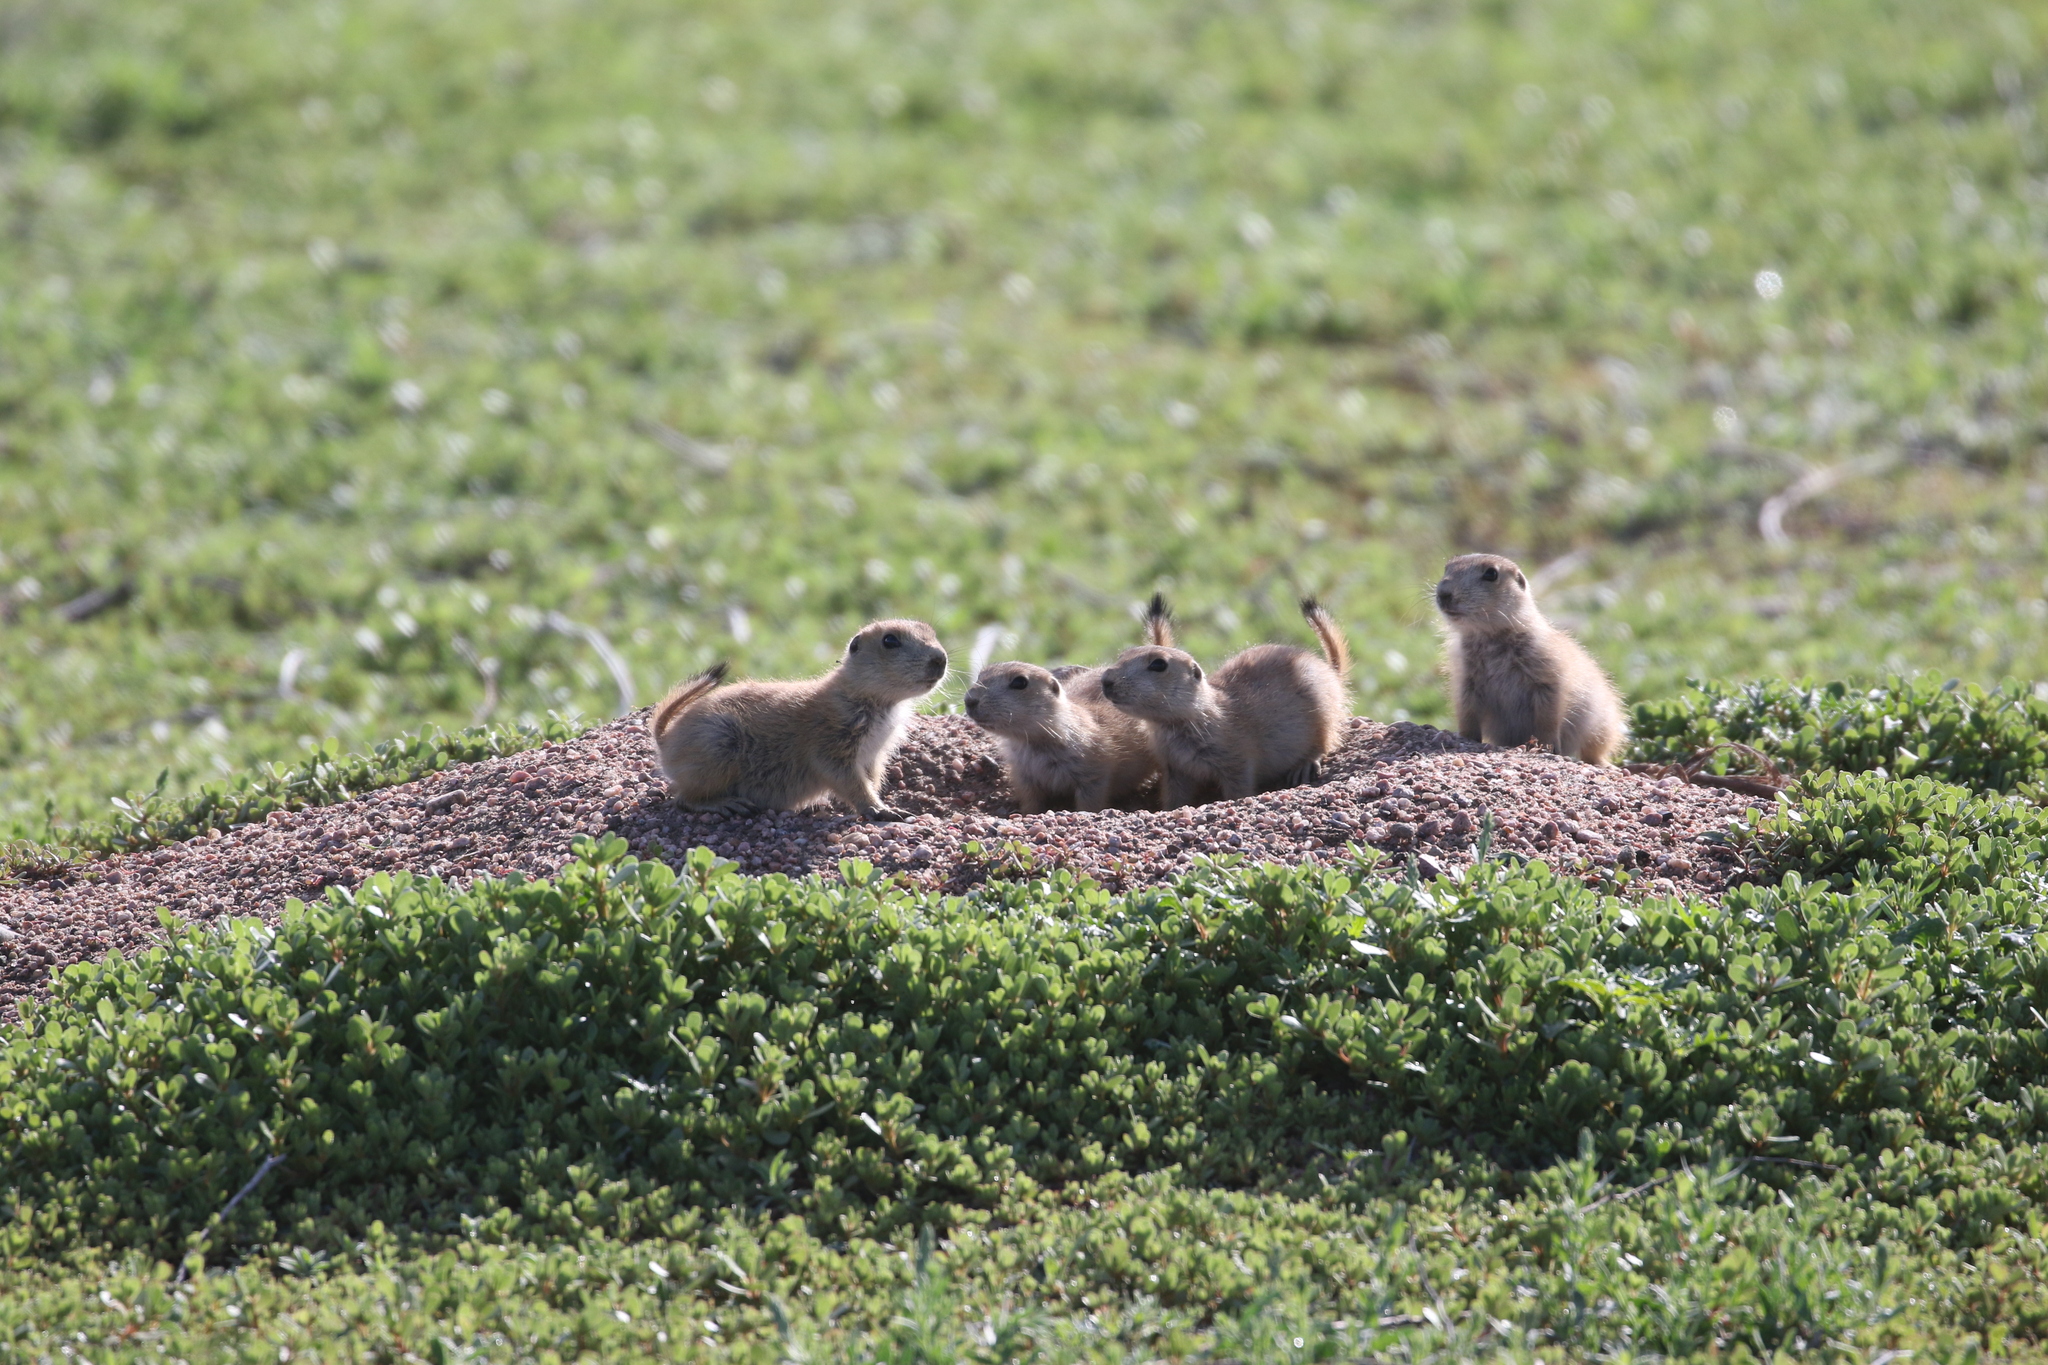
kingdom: Animalia
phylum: Chordata
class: Mammalia
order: Rodentia
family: Sciuridae
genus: Cynomys
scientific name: Cynomys ludovicianus
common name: Black-tailed prairie dog
